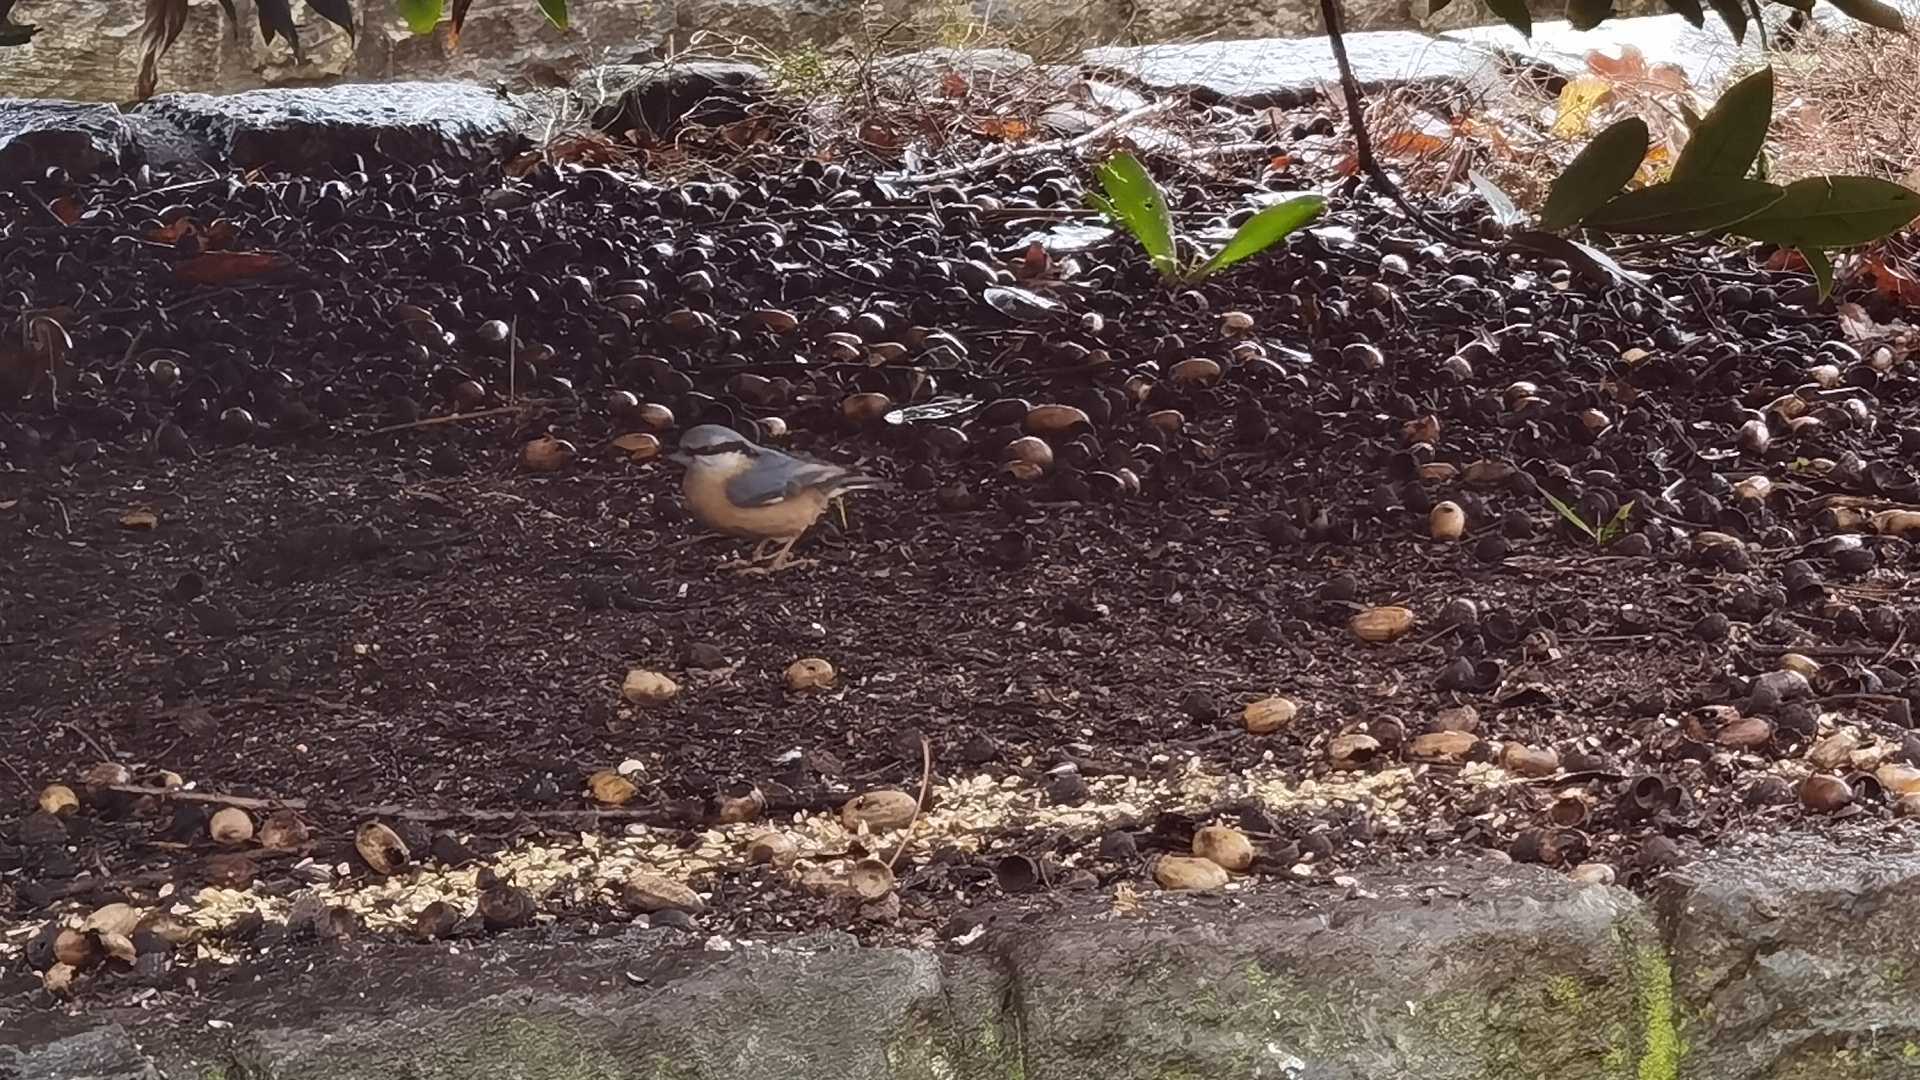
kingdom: Animalia
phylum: Chordata
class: Aves
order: Passeriformes
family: Sittidae
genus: Sitta
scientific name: Sitta europaea
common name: Eurasian nuthatch
